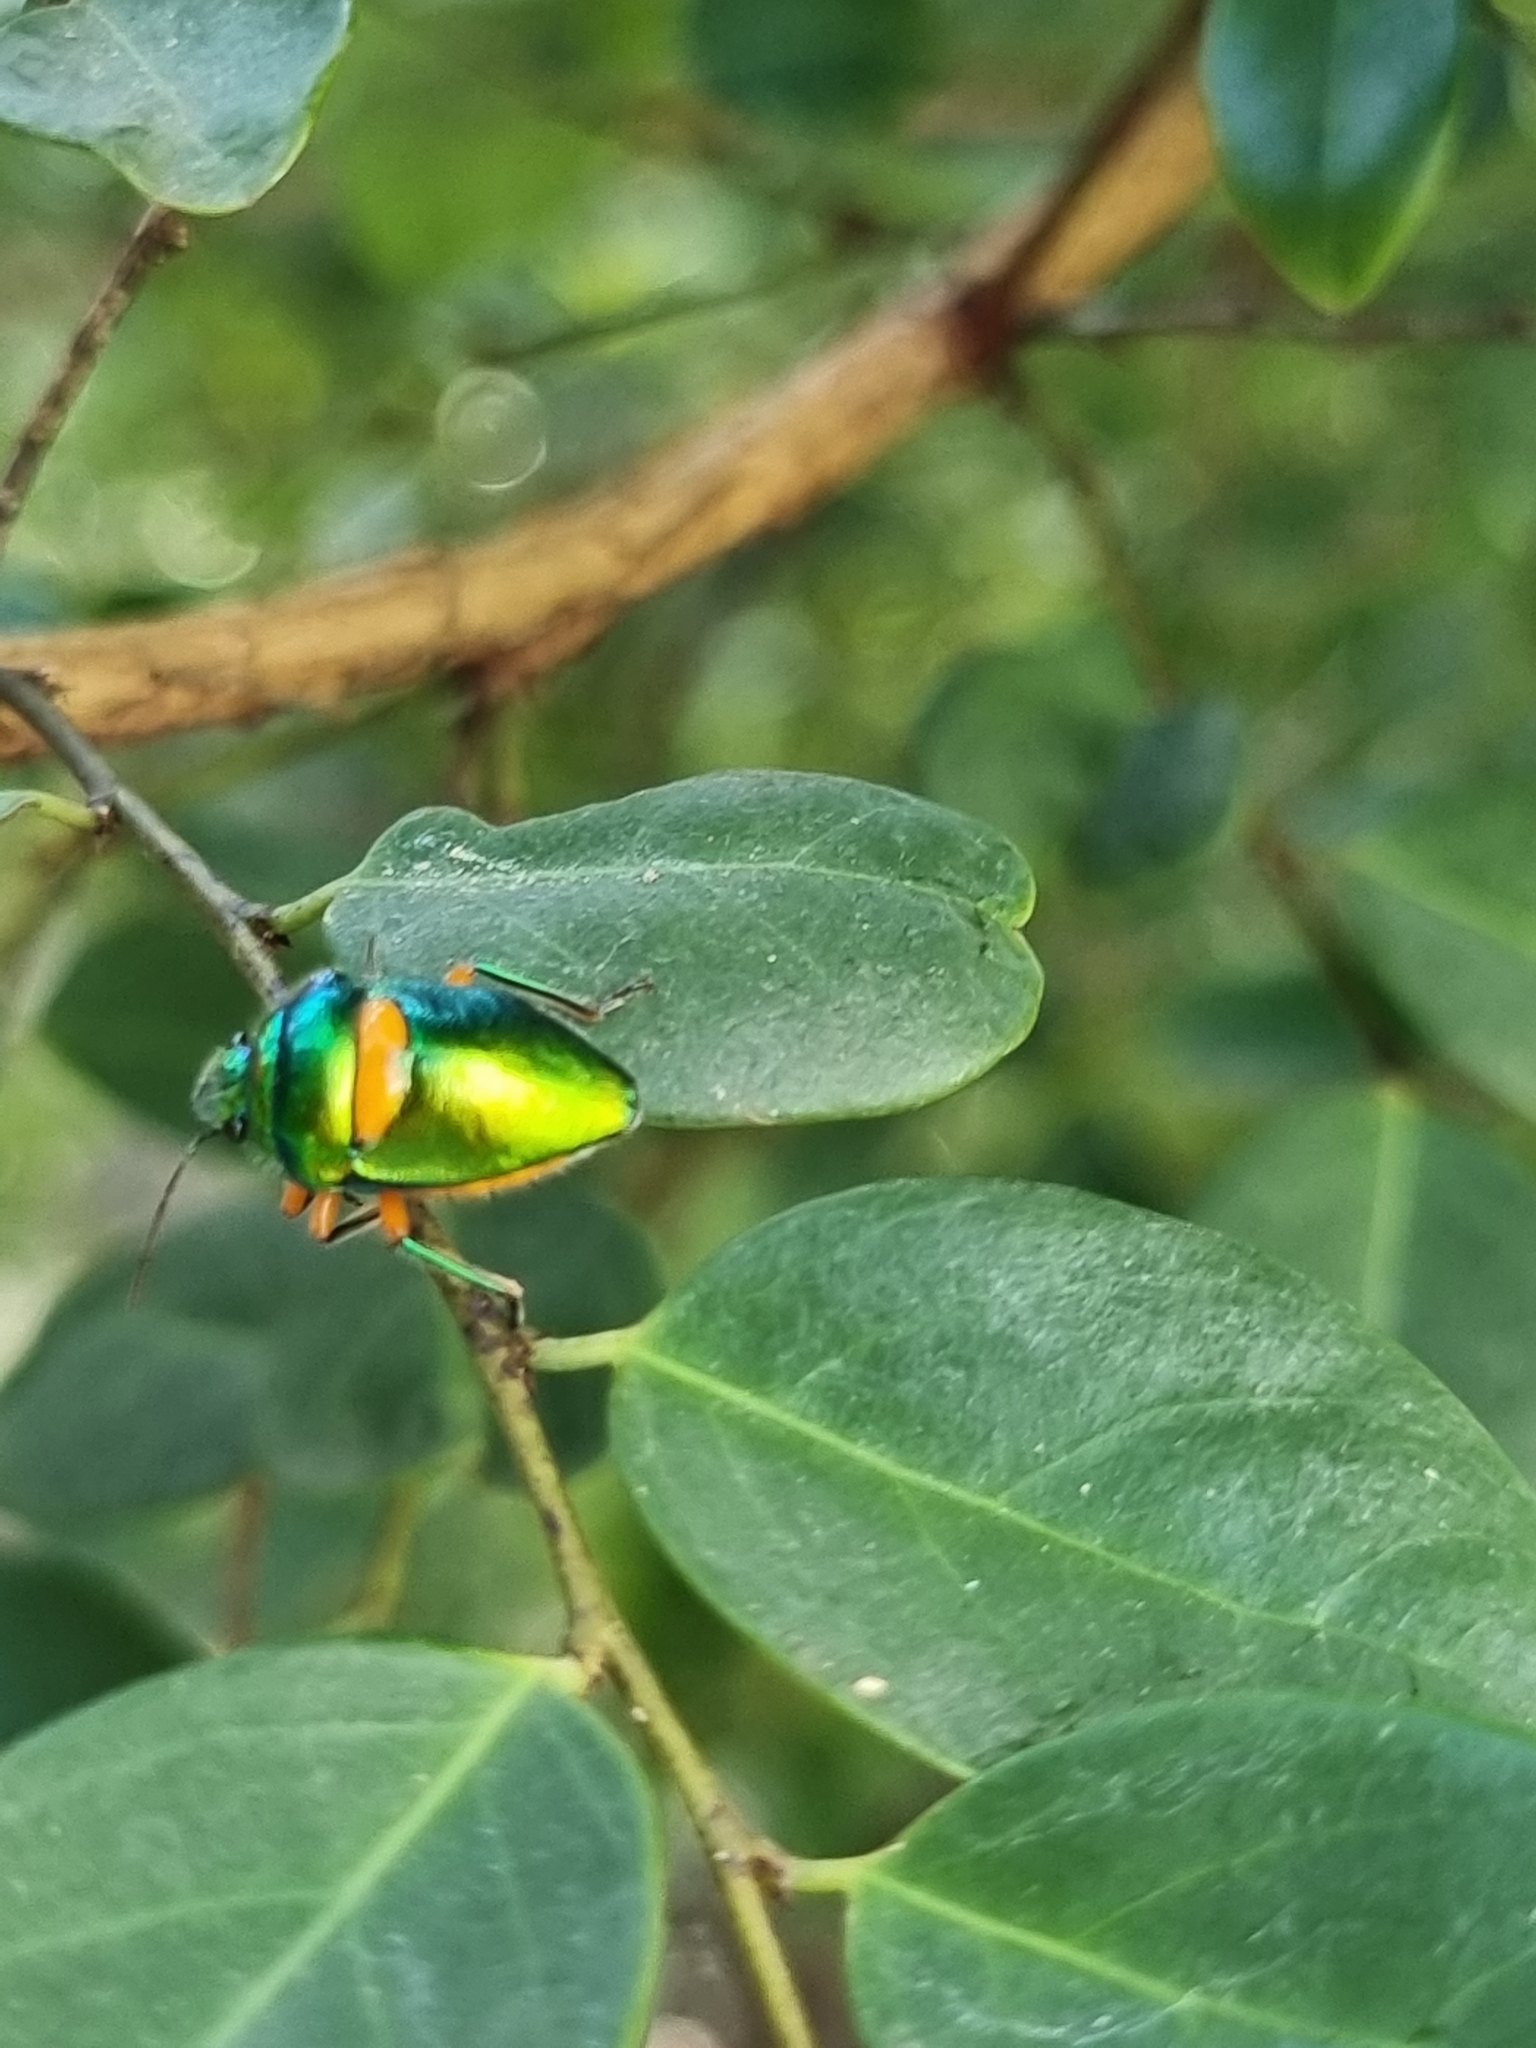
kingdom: Animalia
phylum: Arthropoda
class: Insecta
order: Hemiptera
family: Scutelleridae
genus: Lampromicra
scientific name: Lampromicra senator
